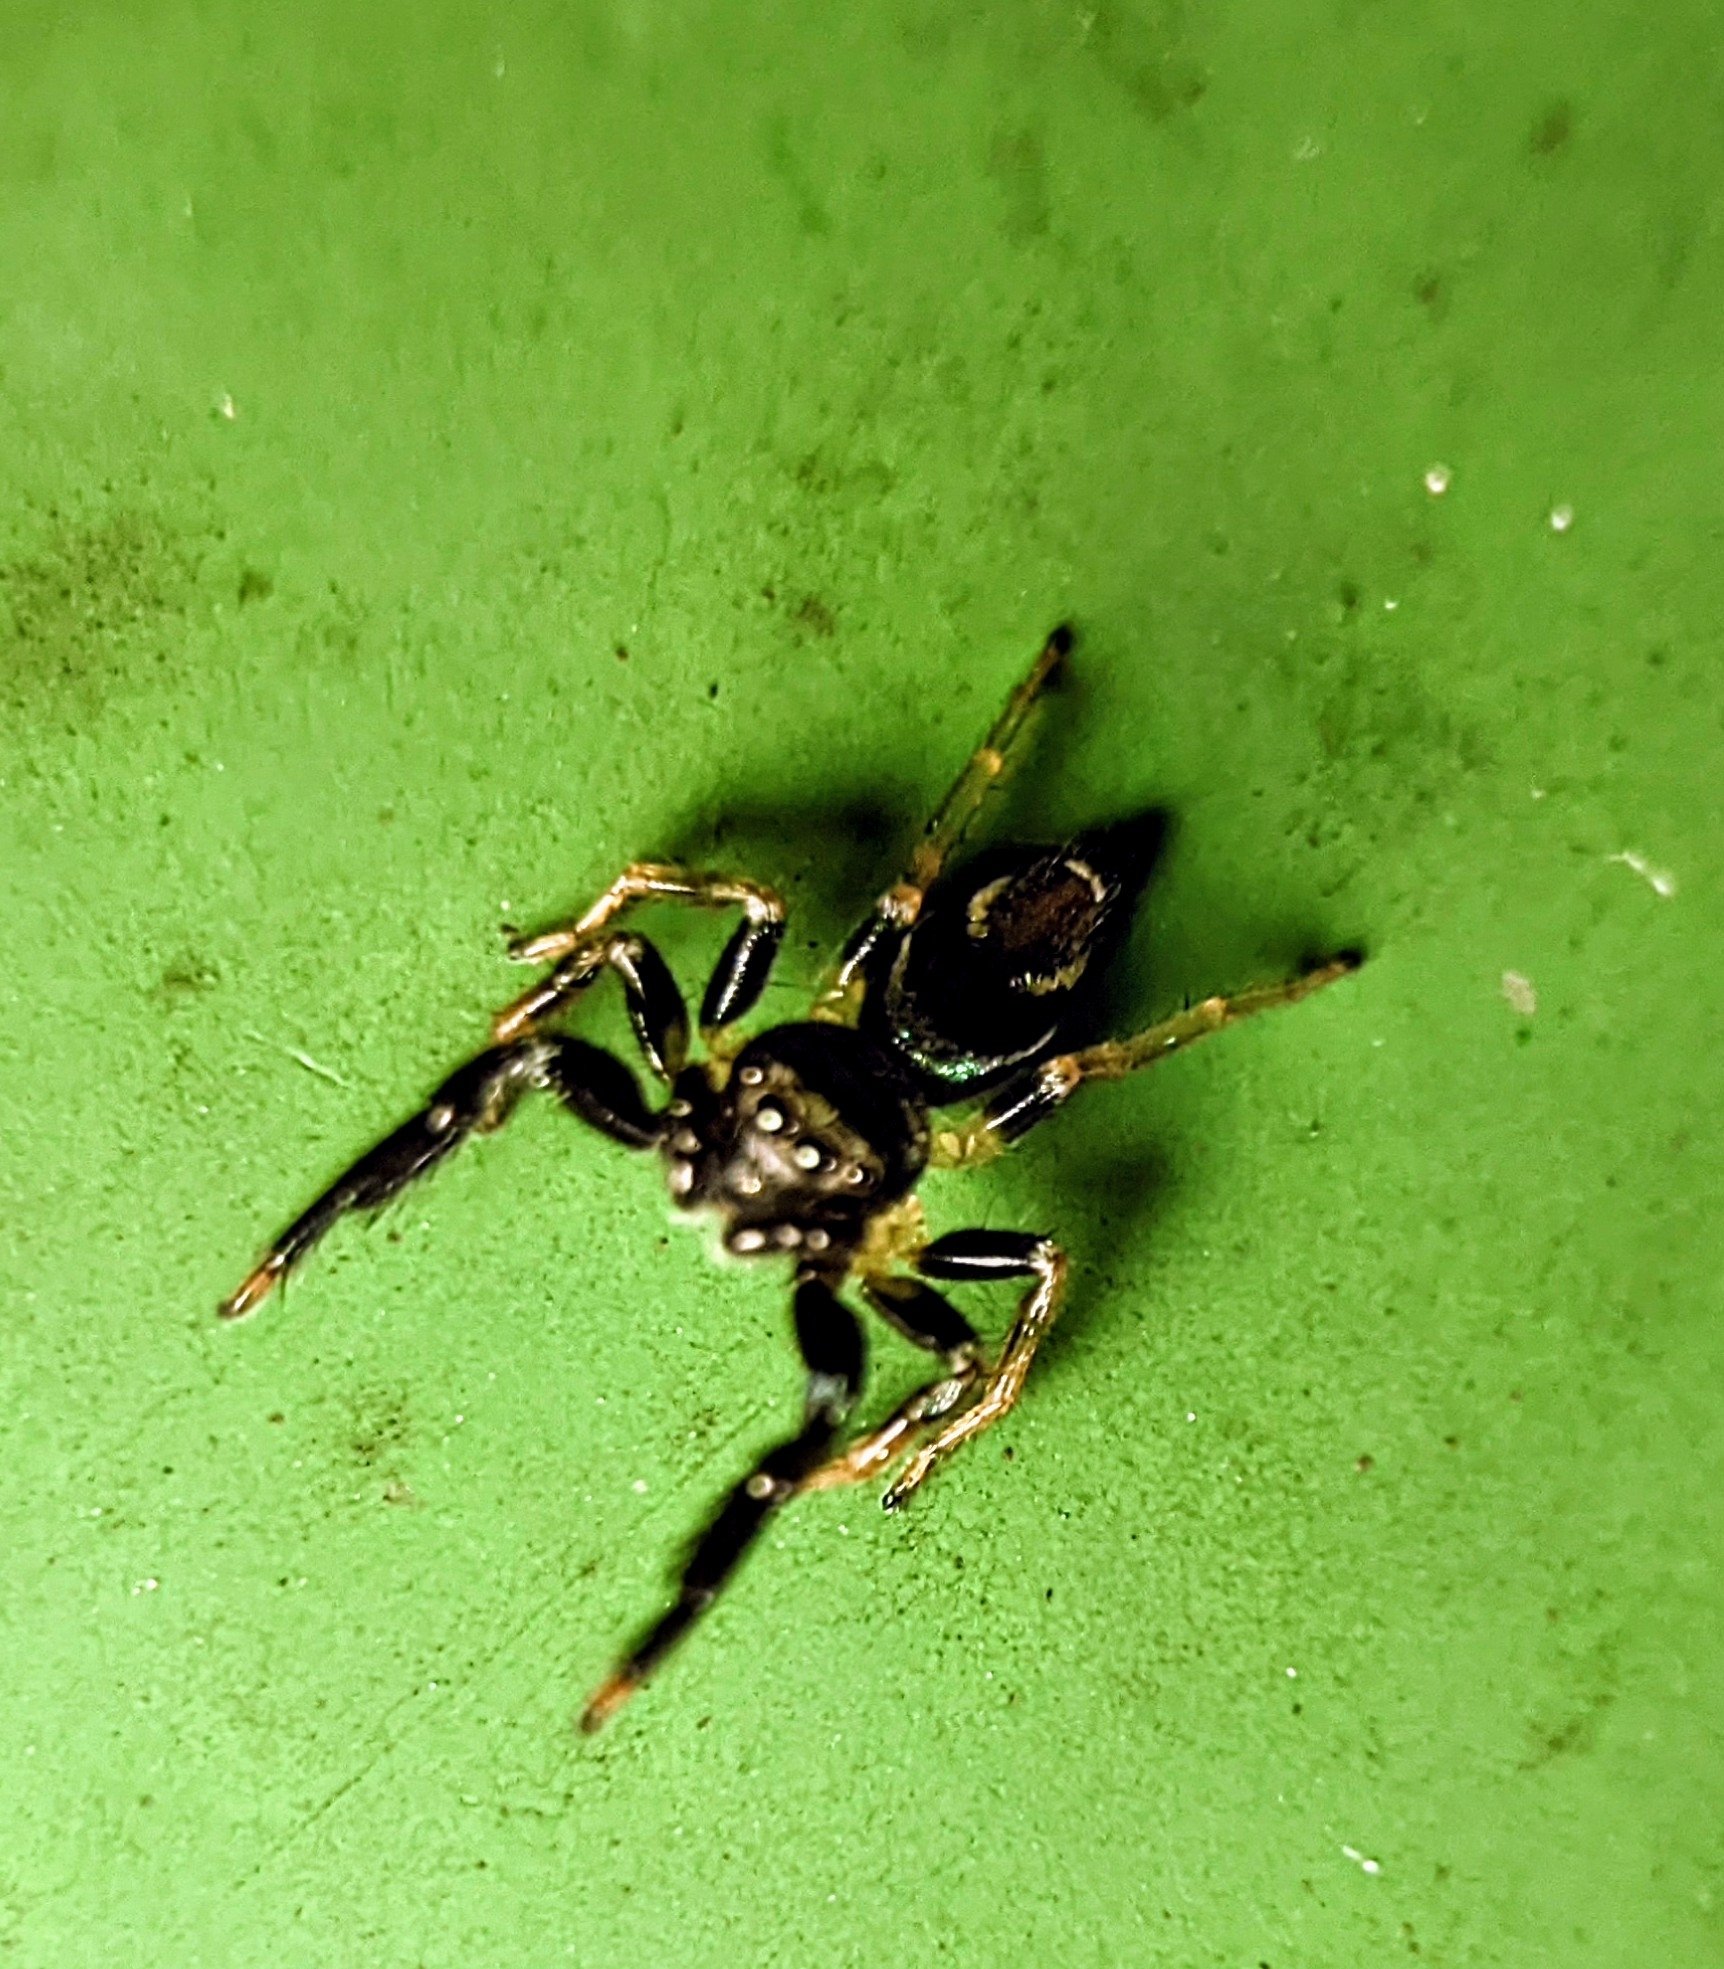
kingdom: Animalia
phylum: Arthropoda
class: Arachnida
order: Araneae
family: Salticidae
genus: Thiania
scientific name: Thiania bhamoensis
